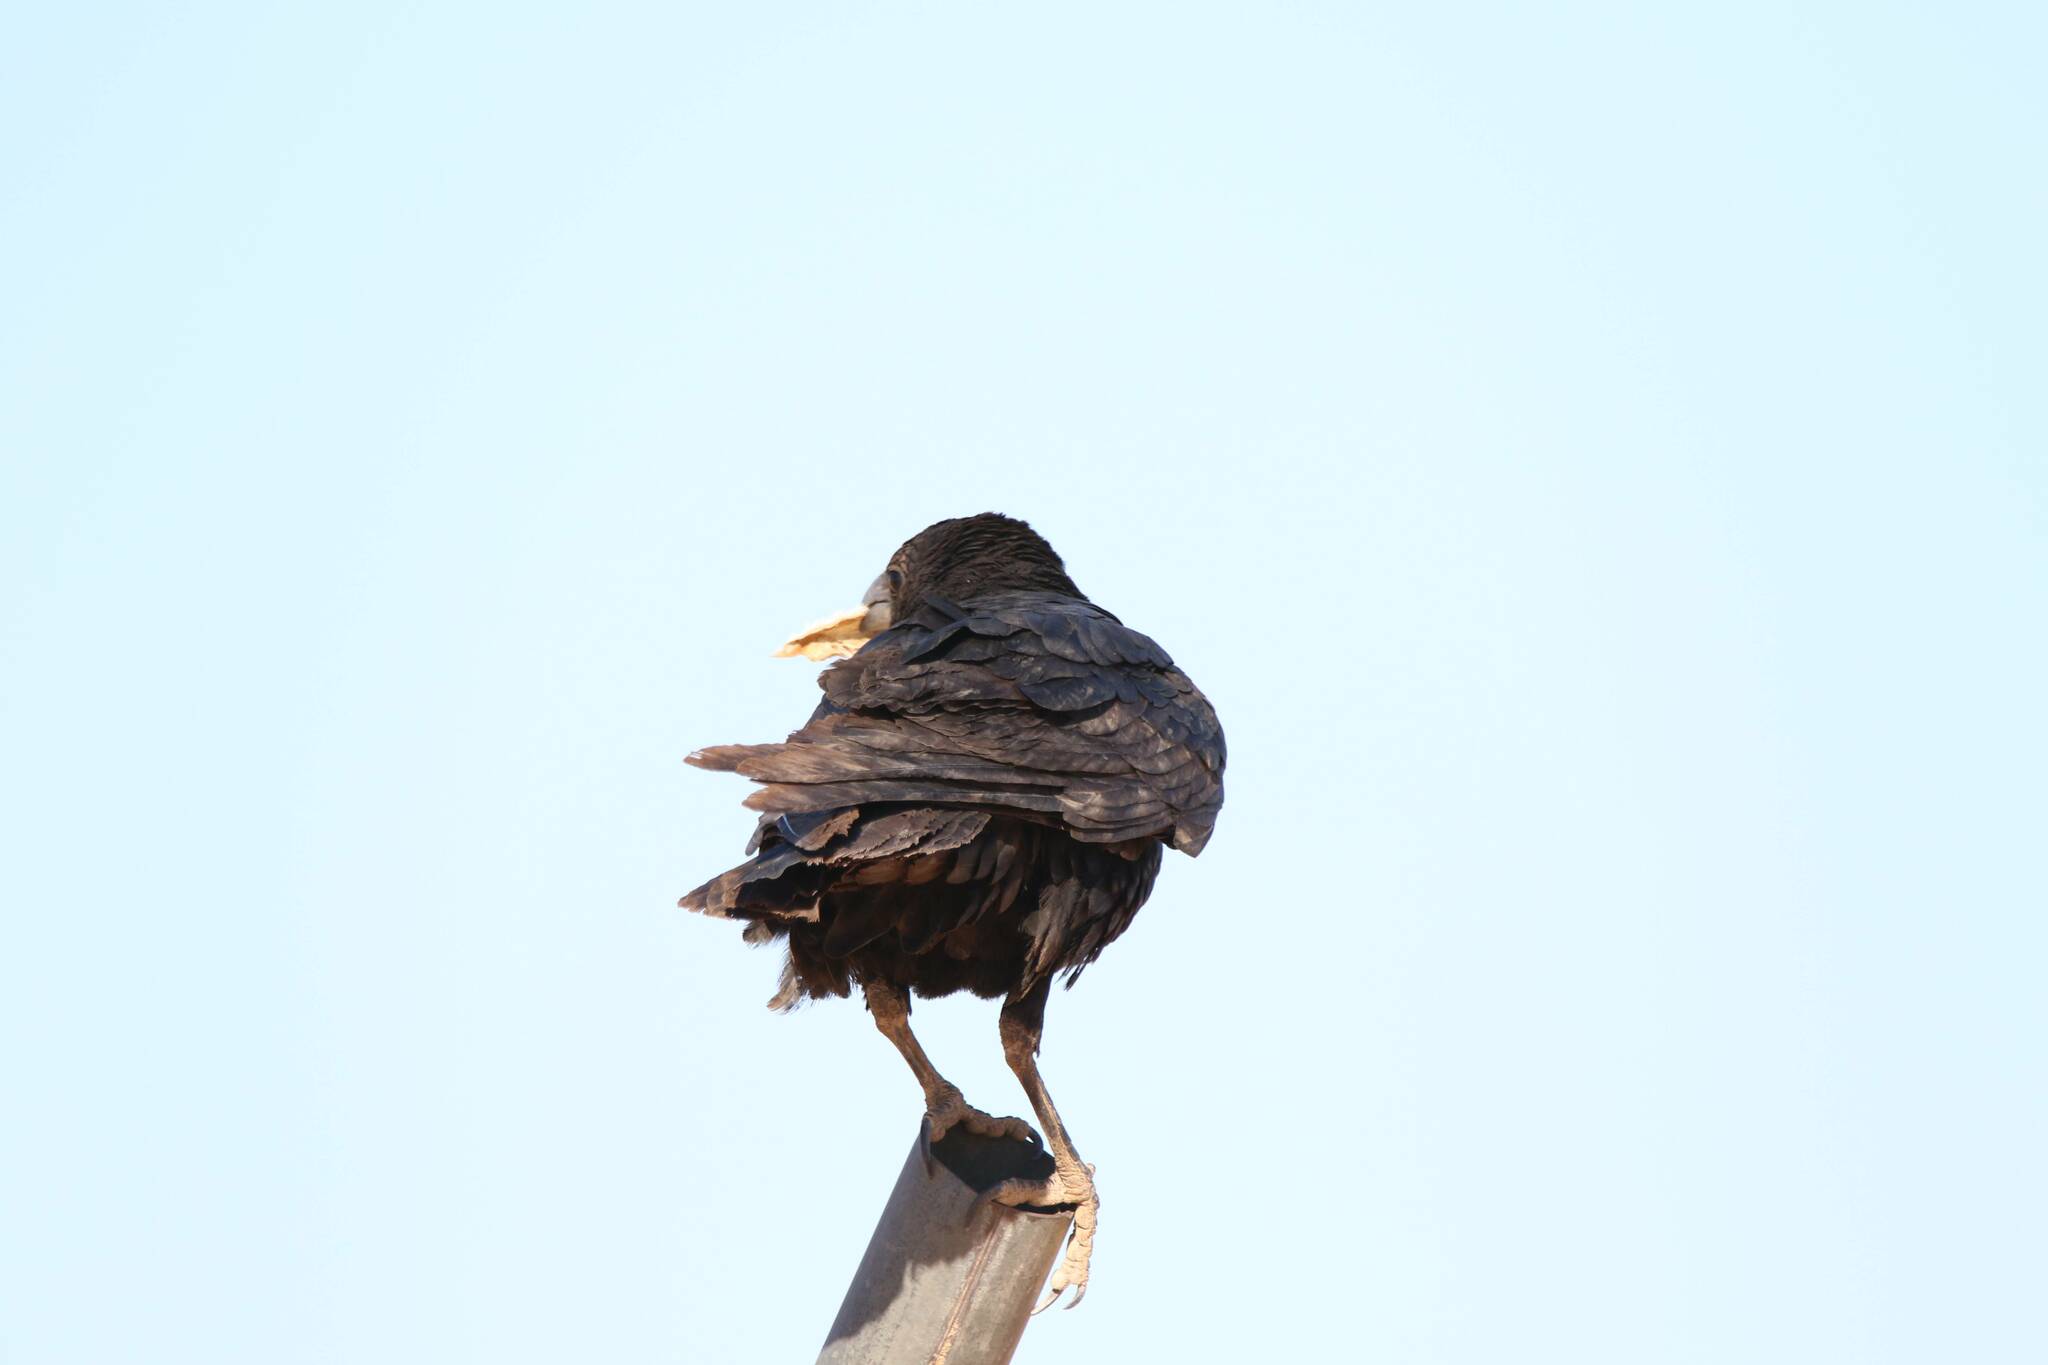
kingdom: Animalia
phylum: Chordata
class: Aves
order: Passeriformes
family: Corvidae
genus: Corvus
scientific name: Corvus ruficollis
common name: Brown-necked raven
